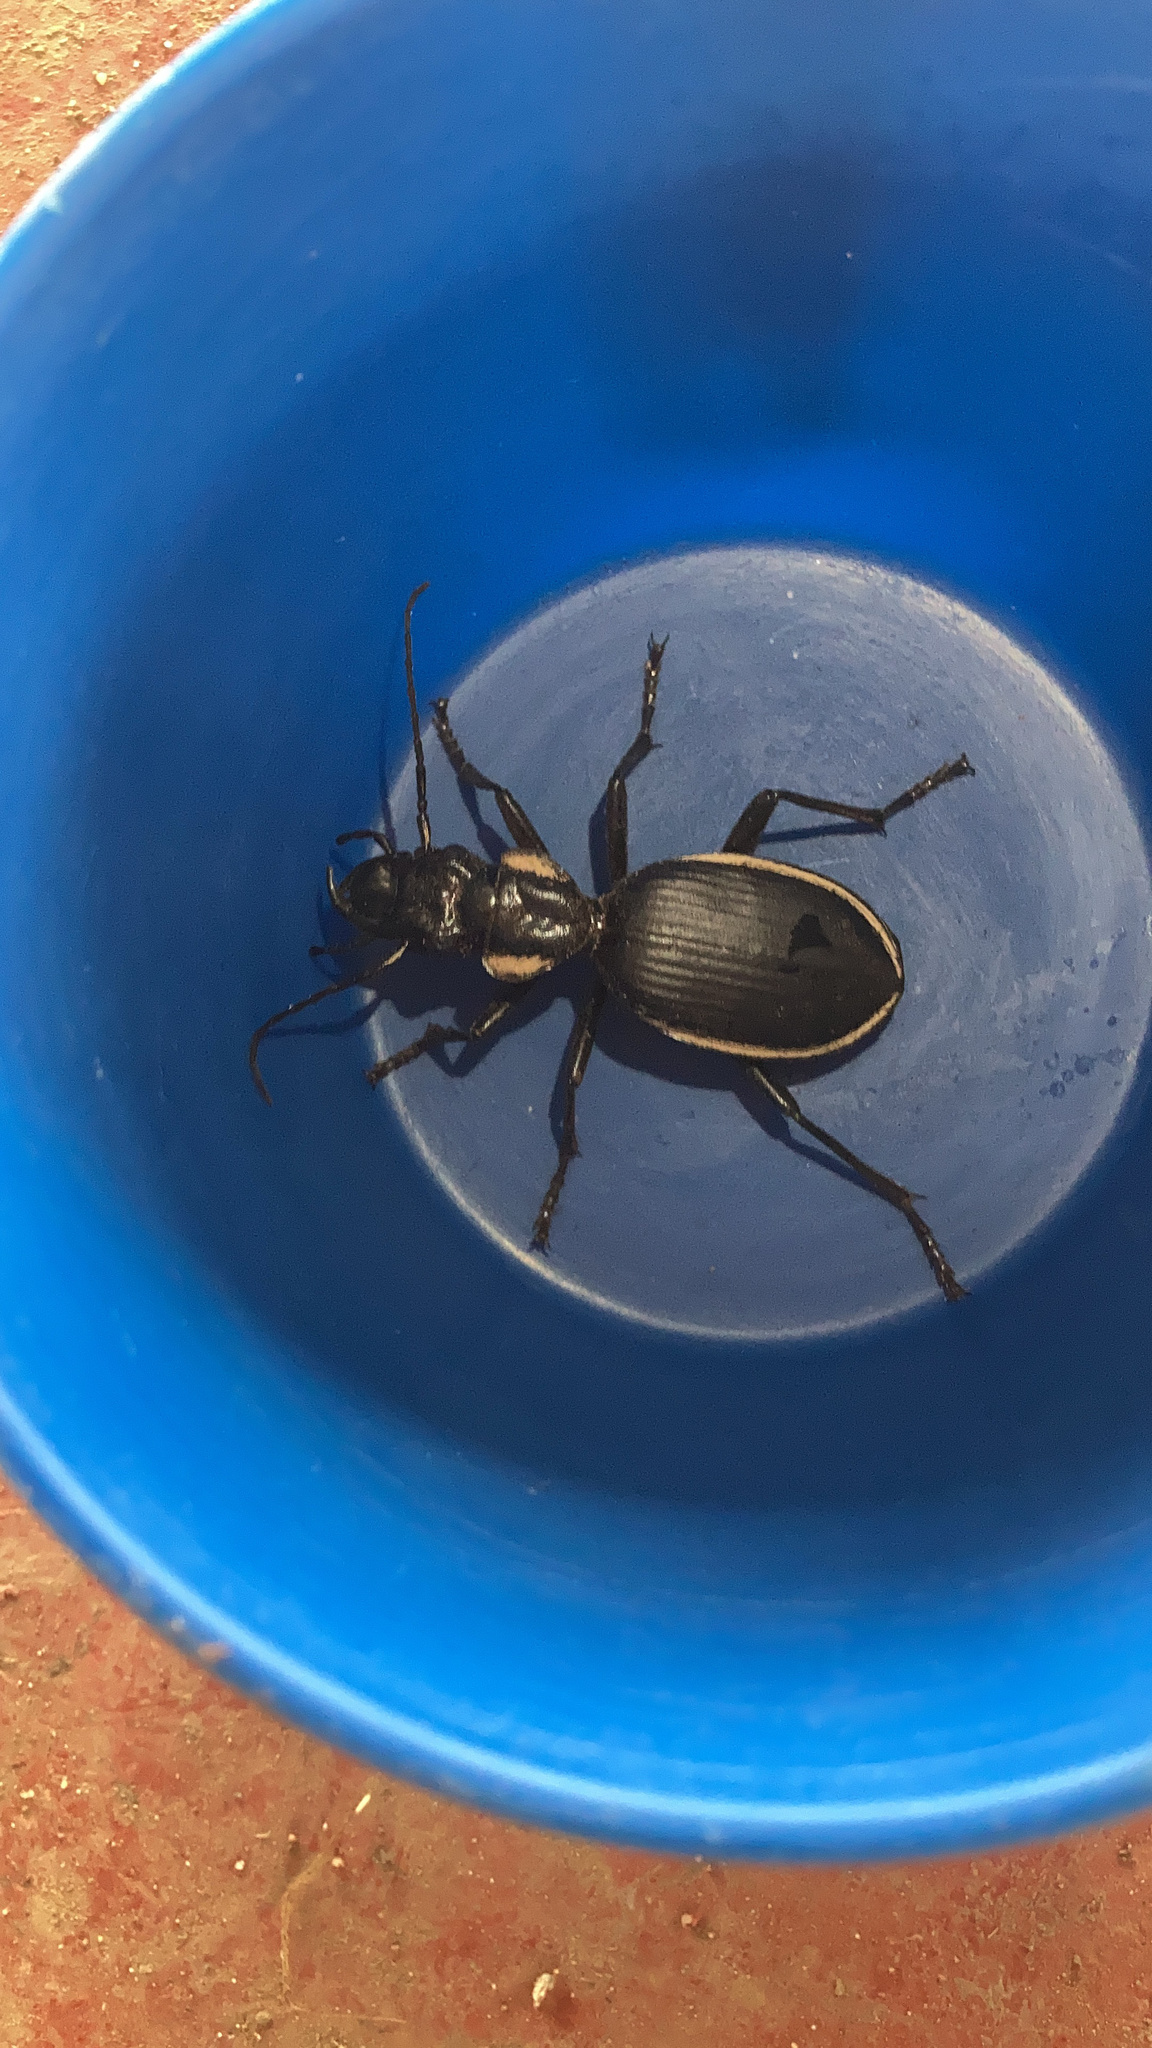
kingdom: Animalia
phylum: Arthropoda
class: Insecta
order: Coleoptera
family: Carabidae
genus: Anthia
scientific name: Anthia circumscripta
